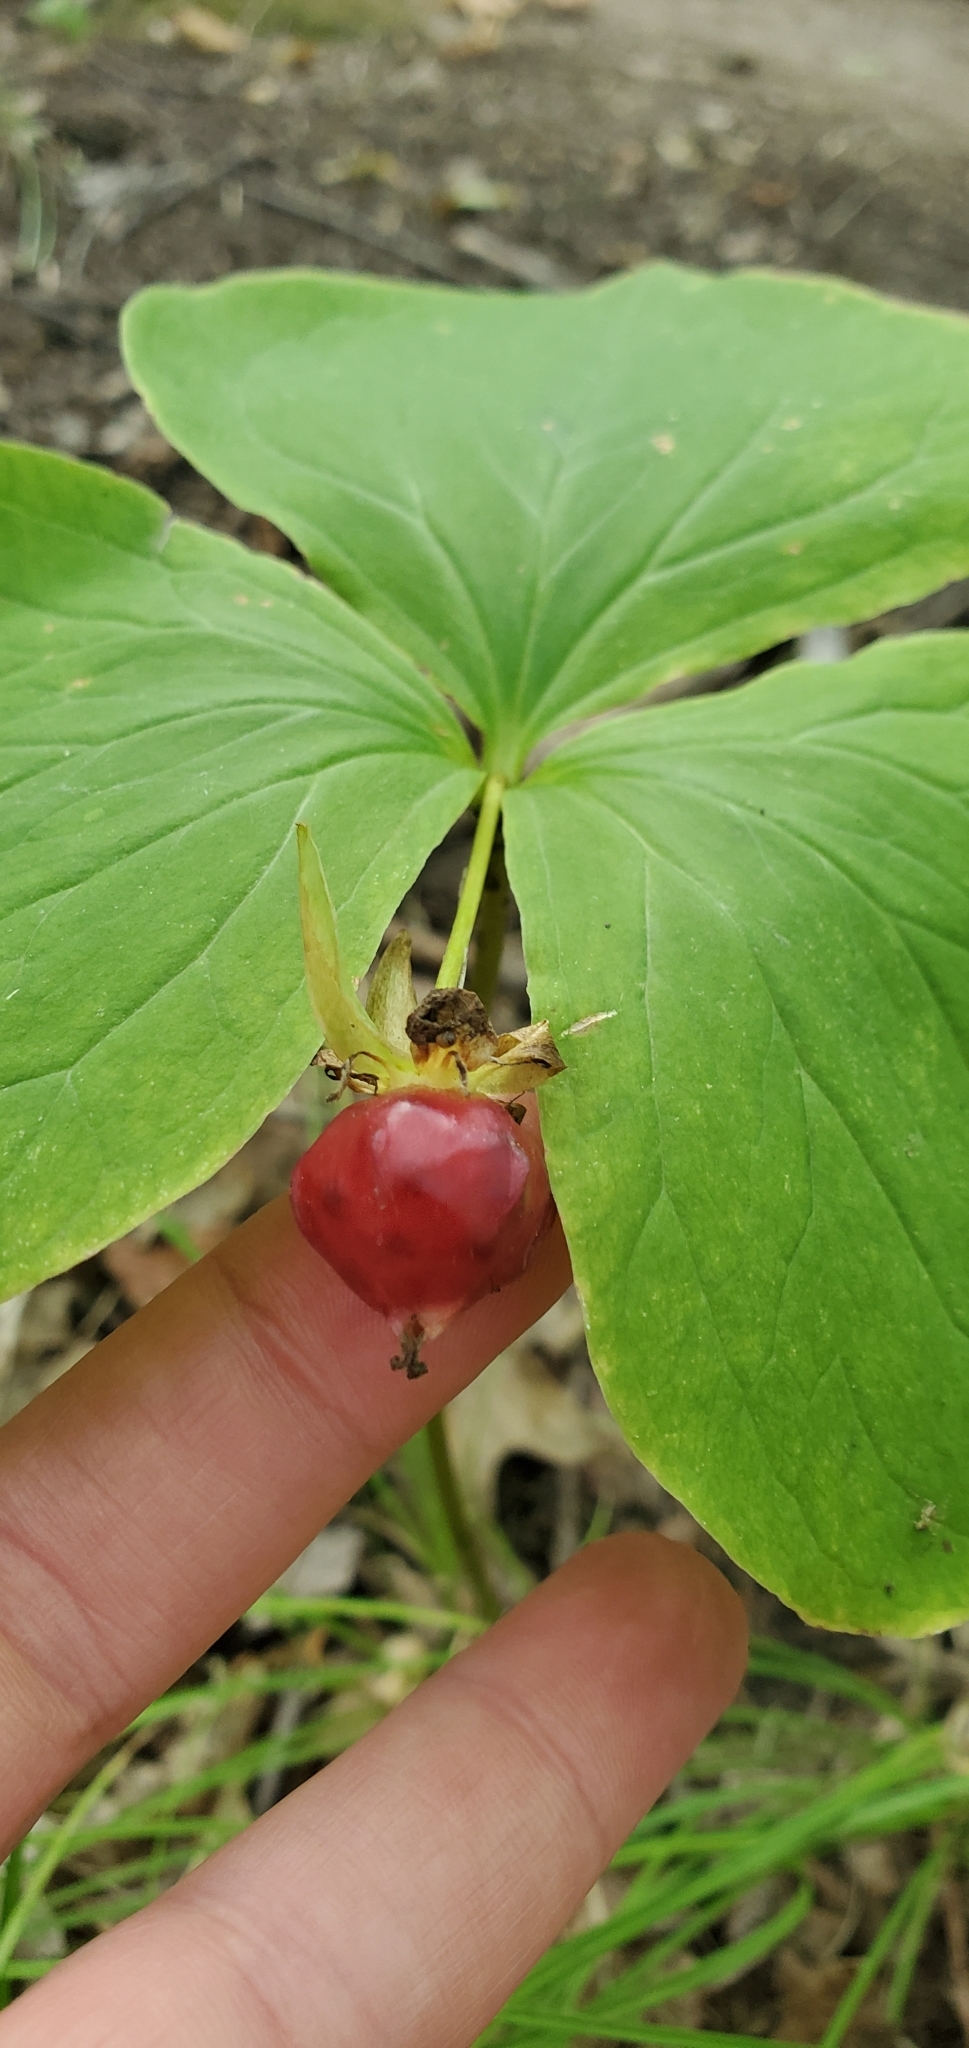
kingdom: Plantae
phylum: Tracheophyta
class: Liliopsida
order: Liliales
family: Melanthiaceae
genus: Trillium
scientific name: Trillium cernuum
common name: Nodding trillium
